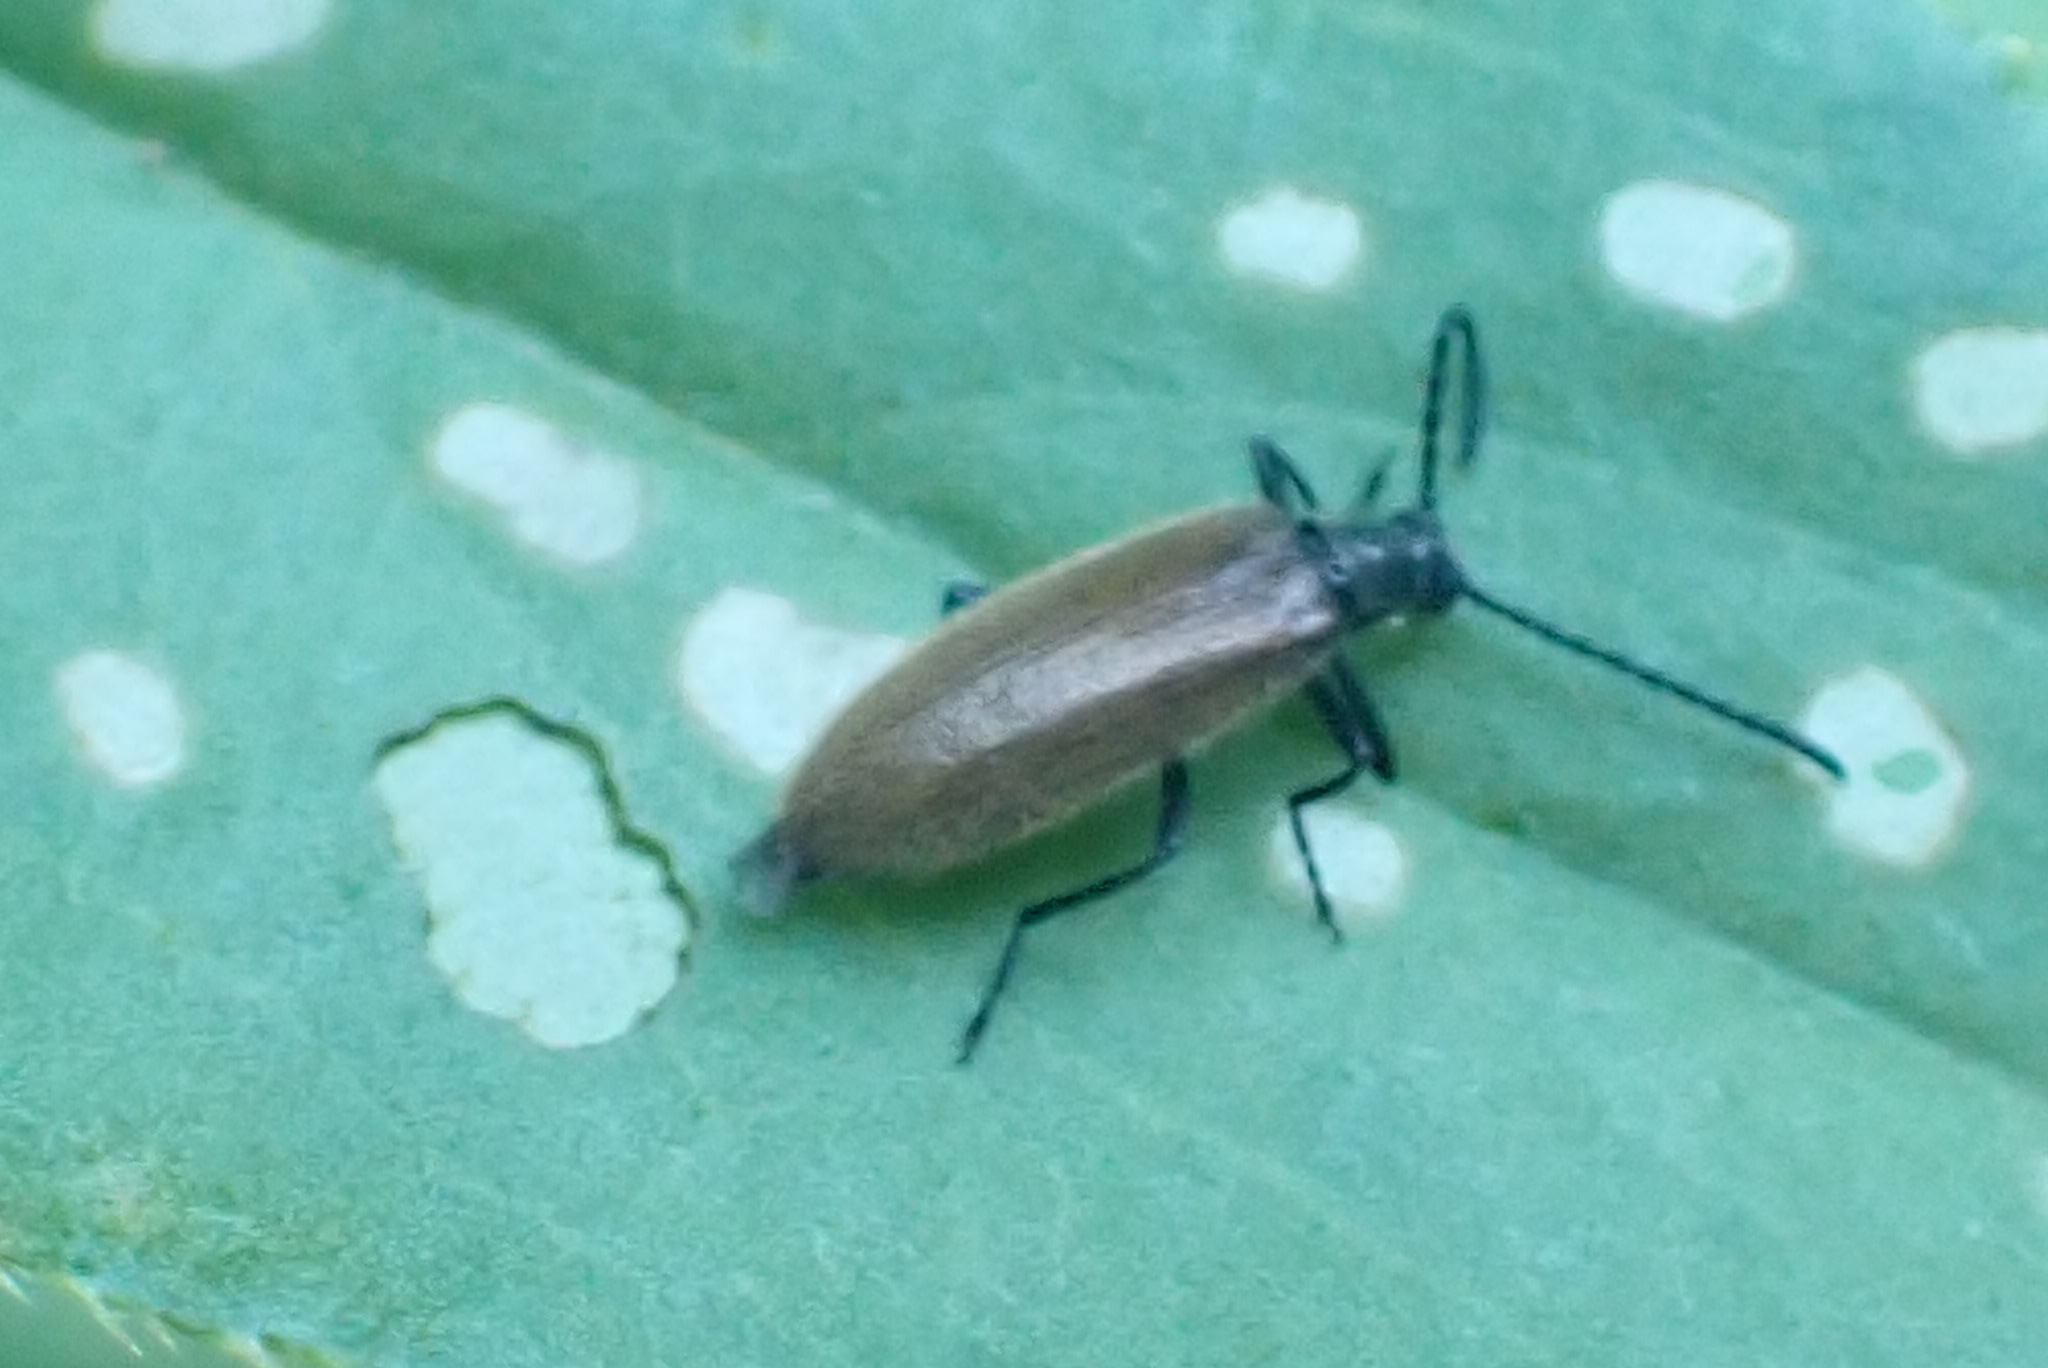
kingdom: Animalia
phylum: Arthropoda
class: Insecta
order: Coleoptera
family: Tenebrionidae
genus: Lagria
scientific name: Lagria hirta
